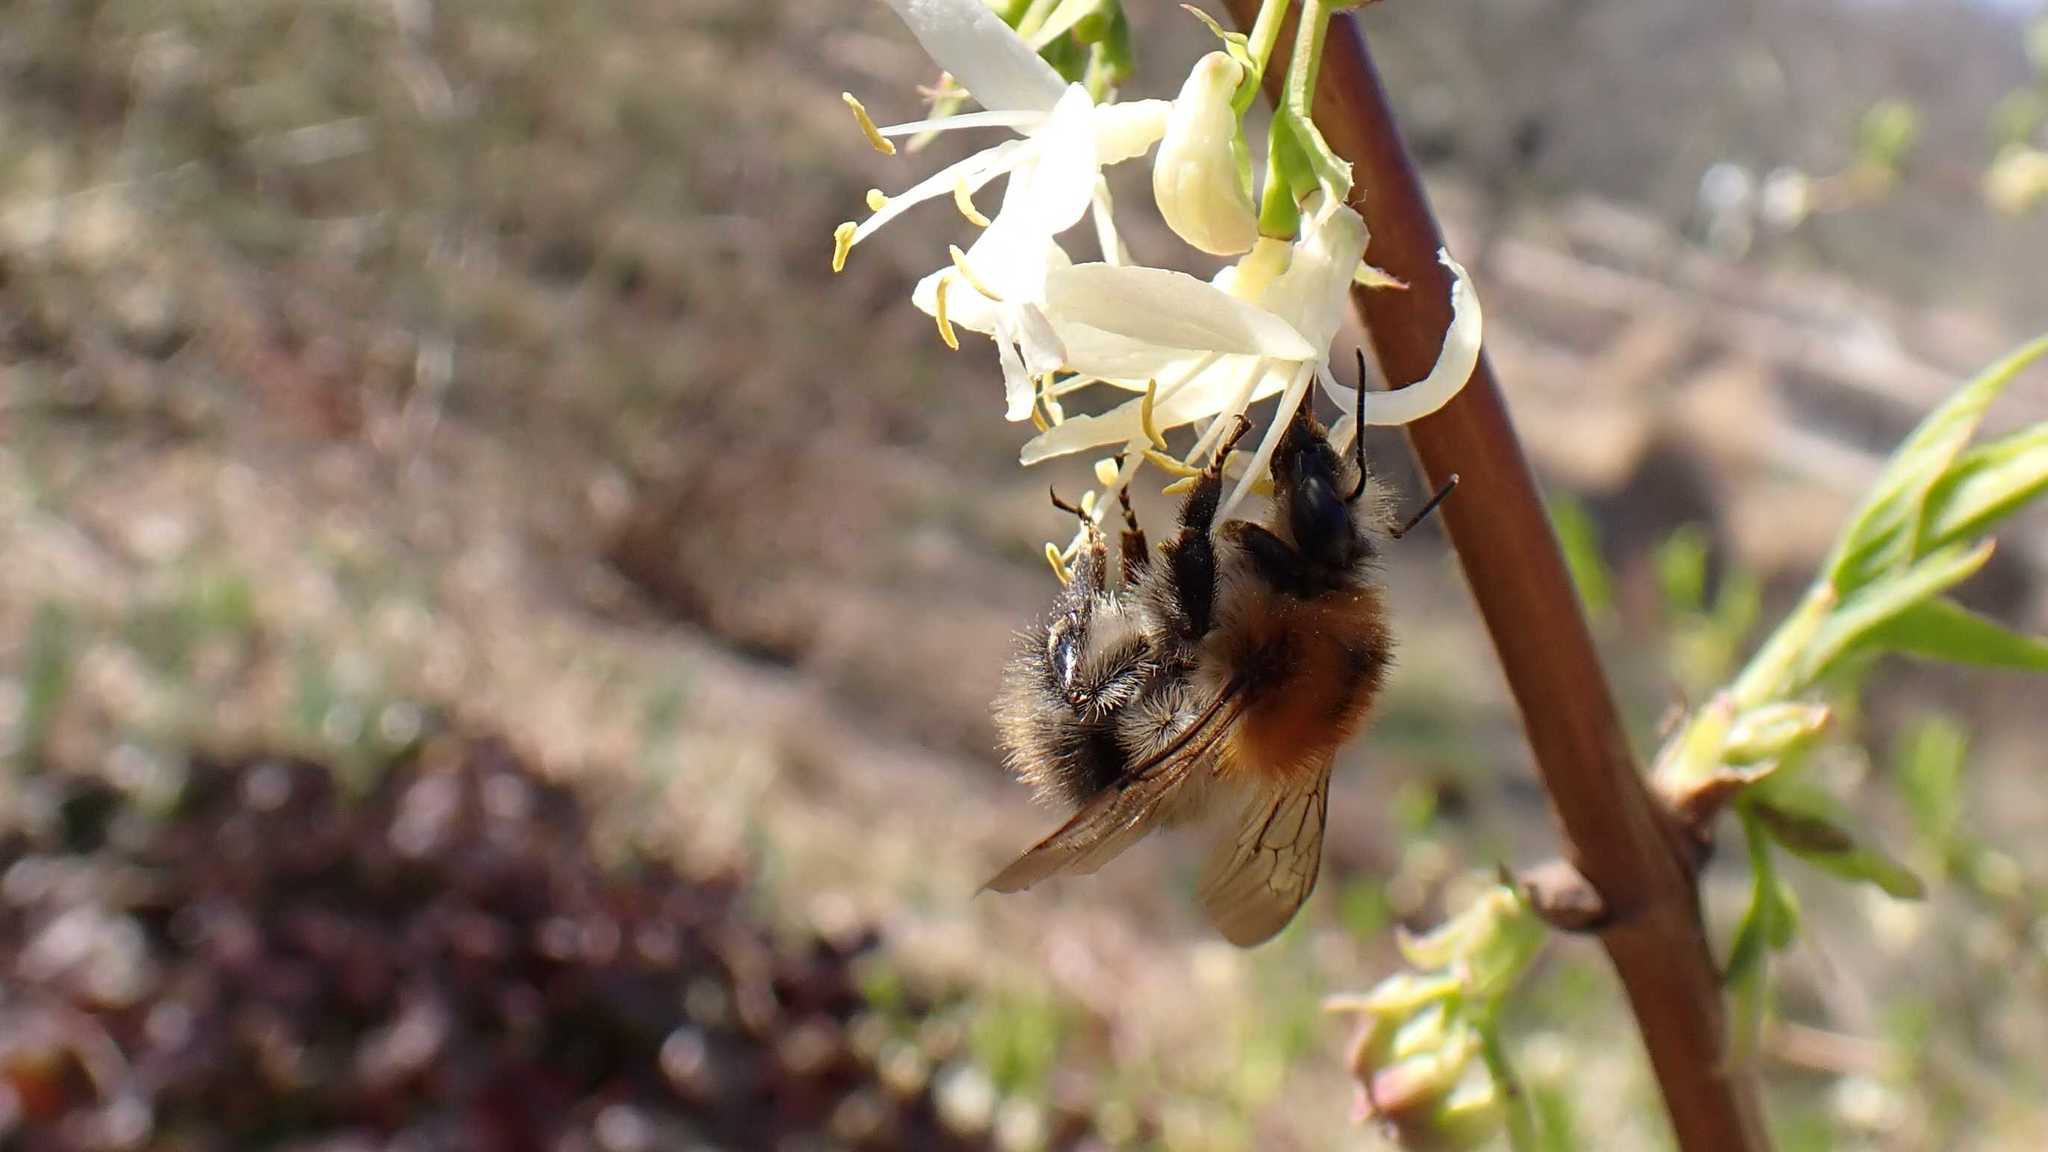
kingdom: Animalia
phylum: Arthropoda
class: Insecta
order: Hymenoptera
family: Apidae
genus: Bombus
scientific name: Bombus pascuorum
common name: Common carder bee
